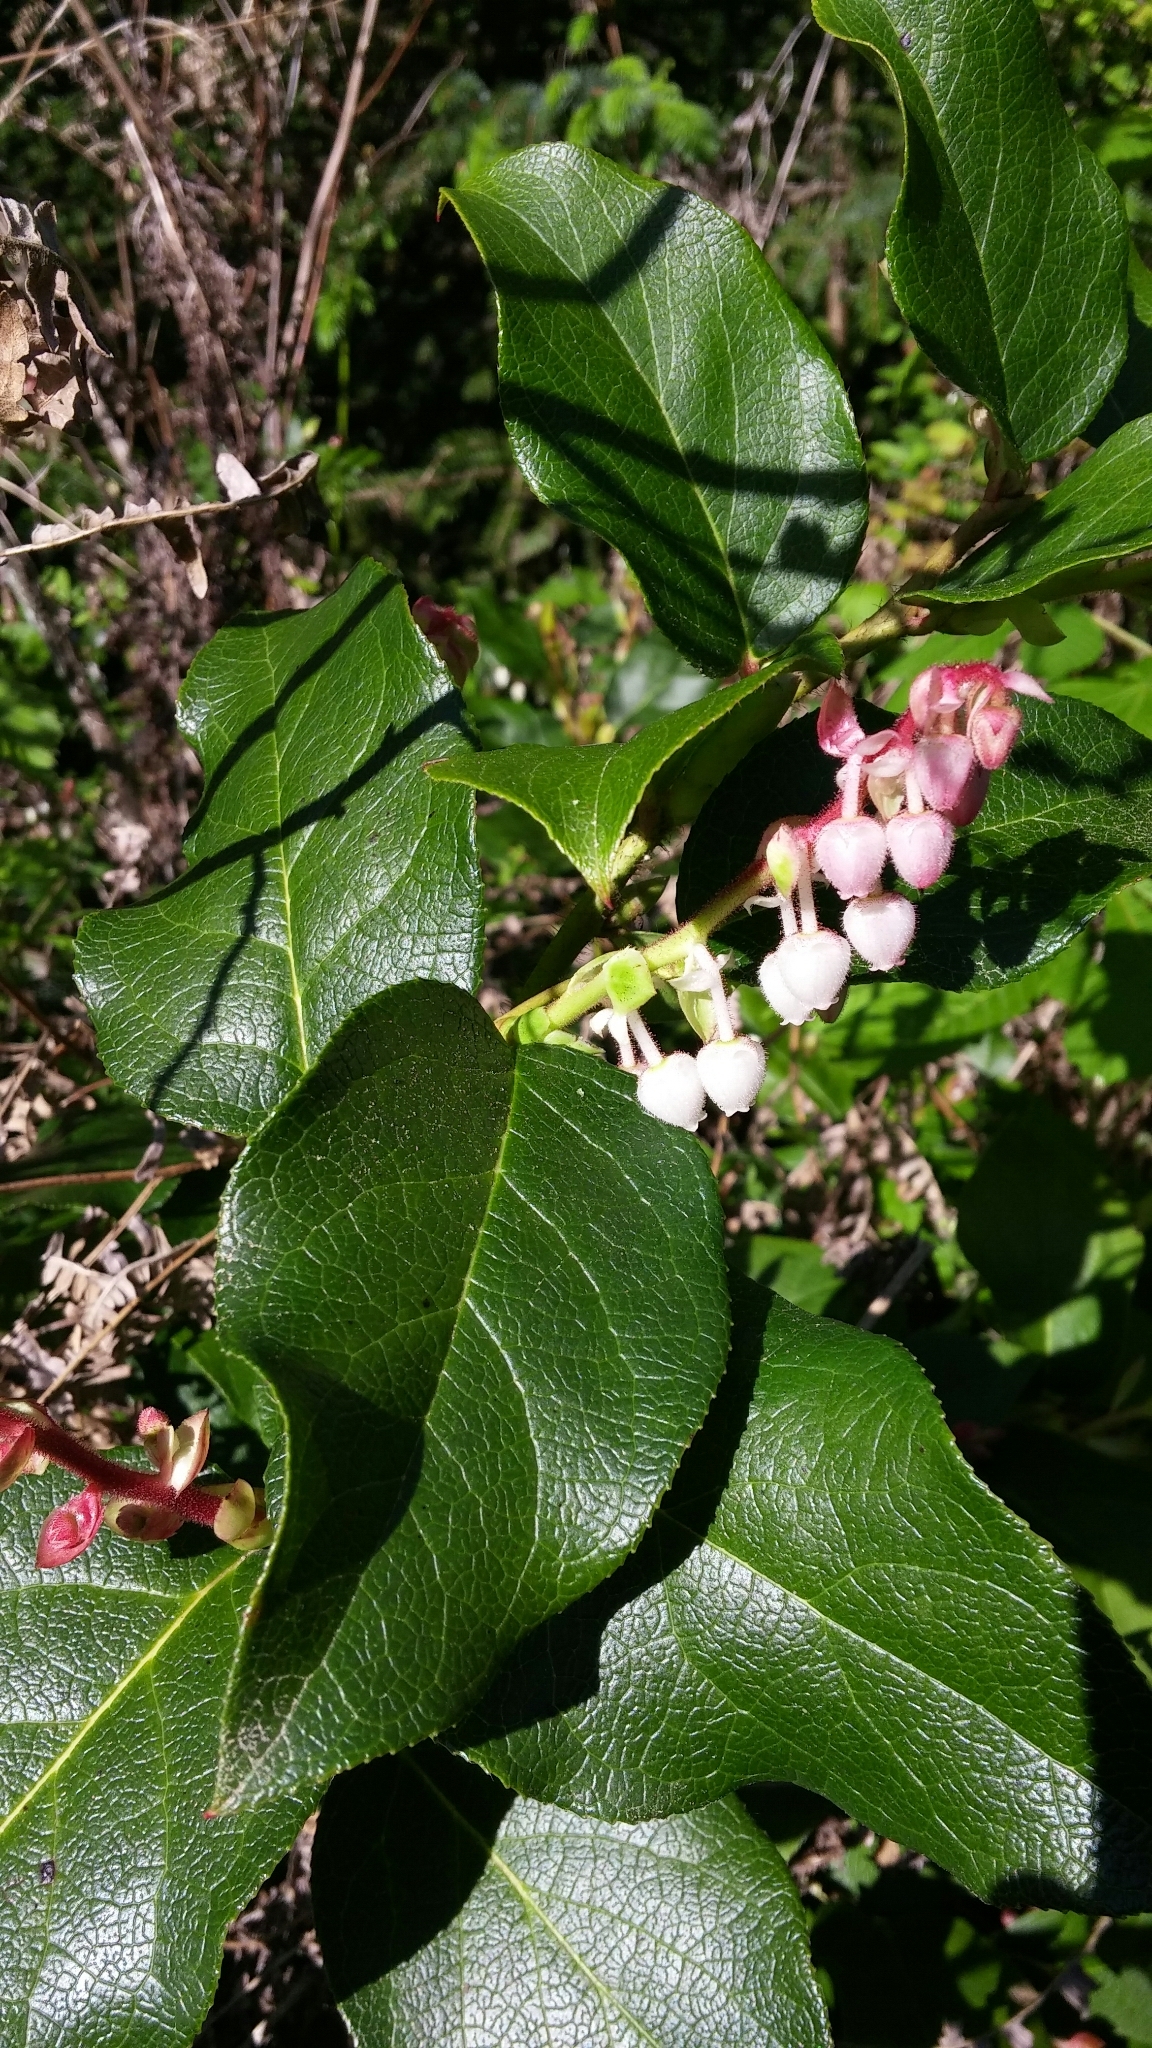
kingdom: Plantae
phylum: Tracheophyta
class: Magnoliopsida
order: Ericales
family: Ericaceae
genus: Gaultheria
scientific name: Gaultheria shallon
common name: Shallon
